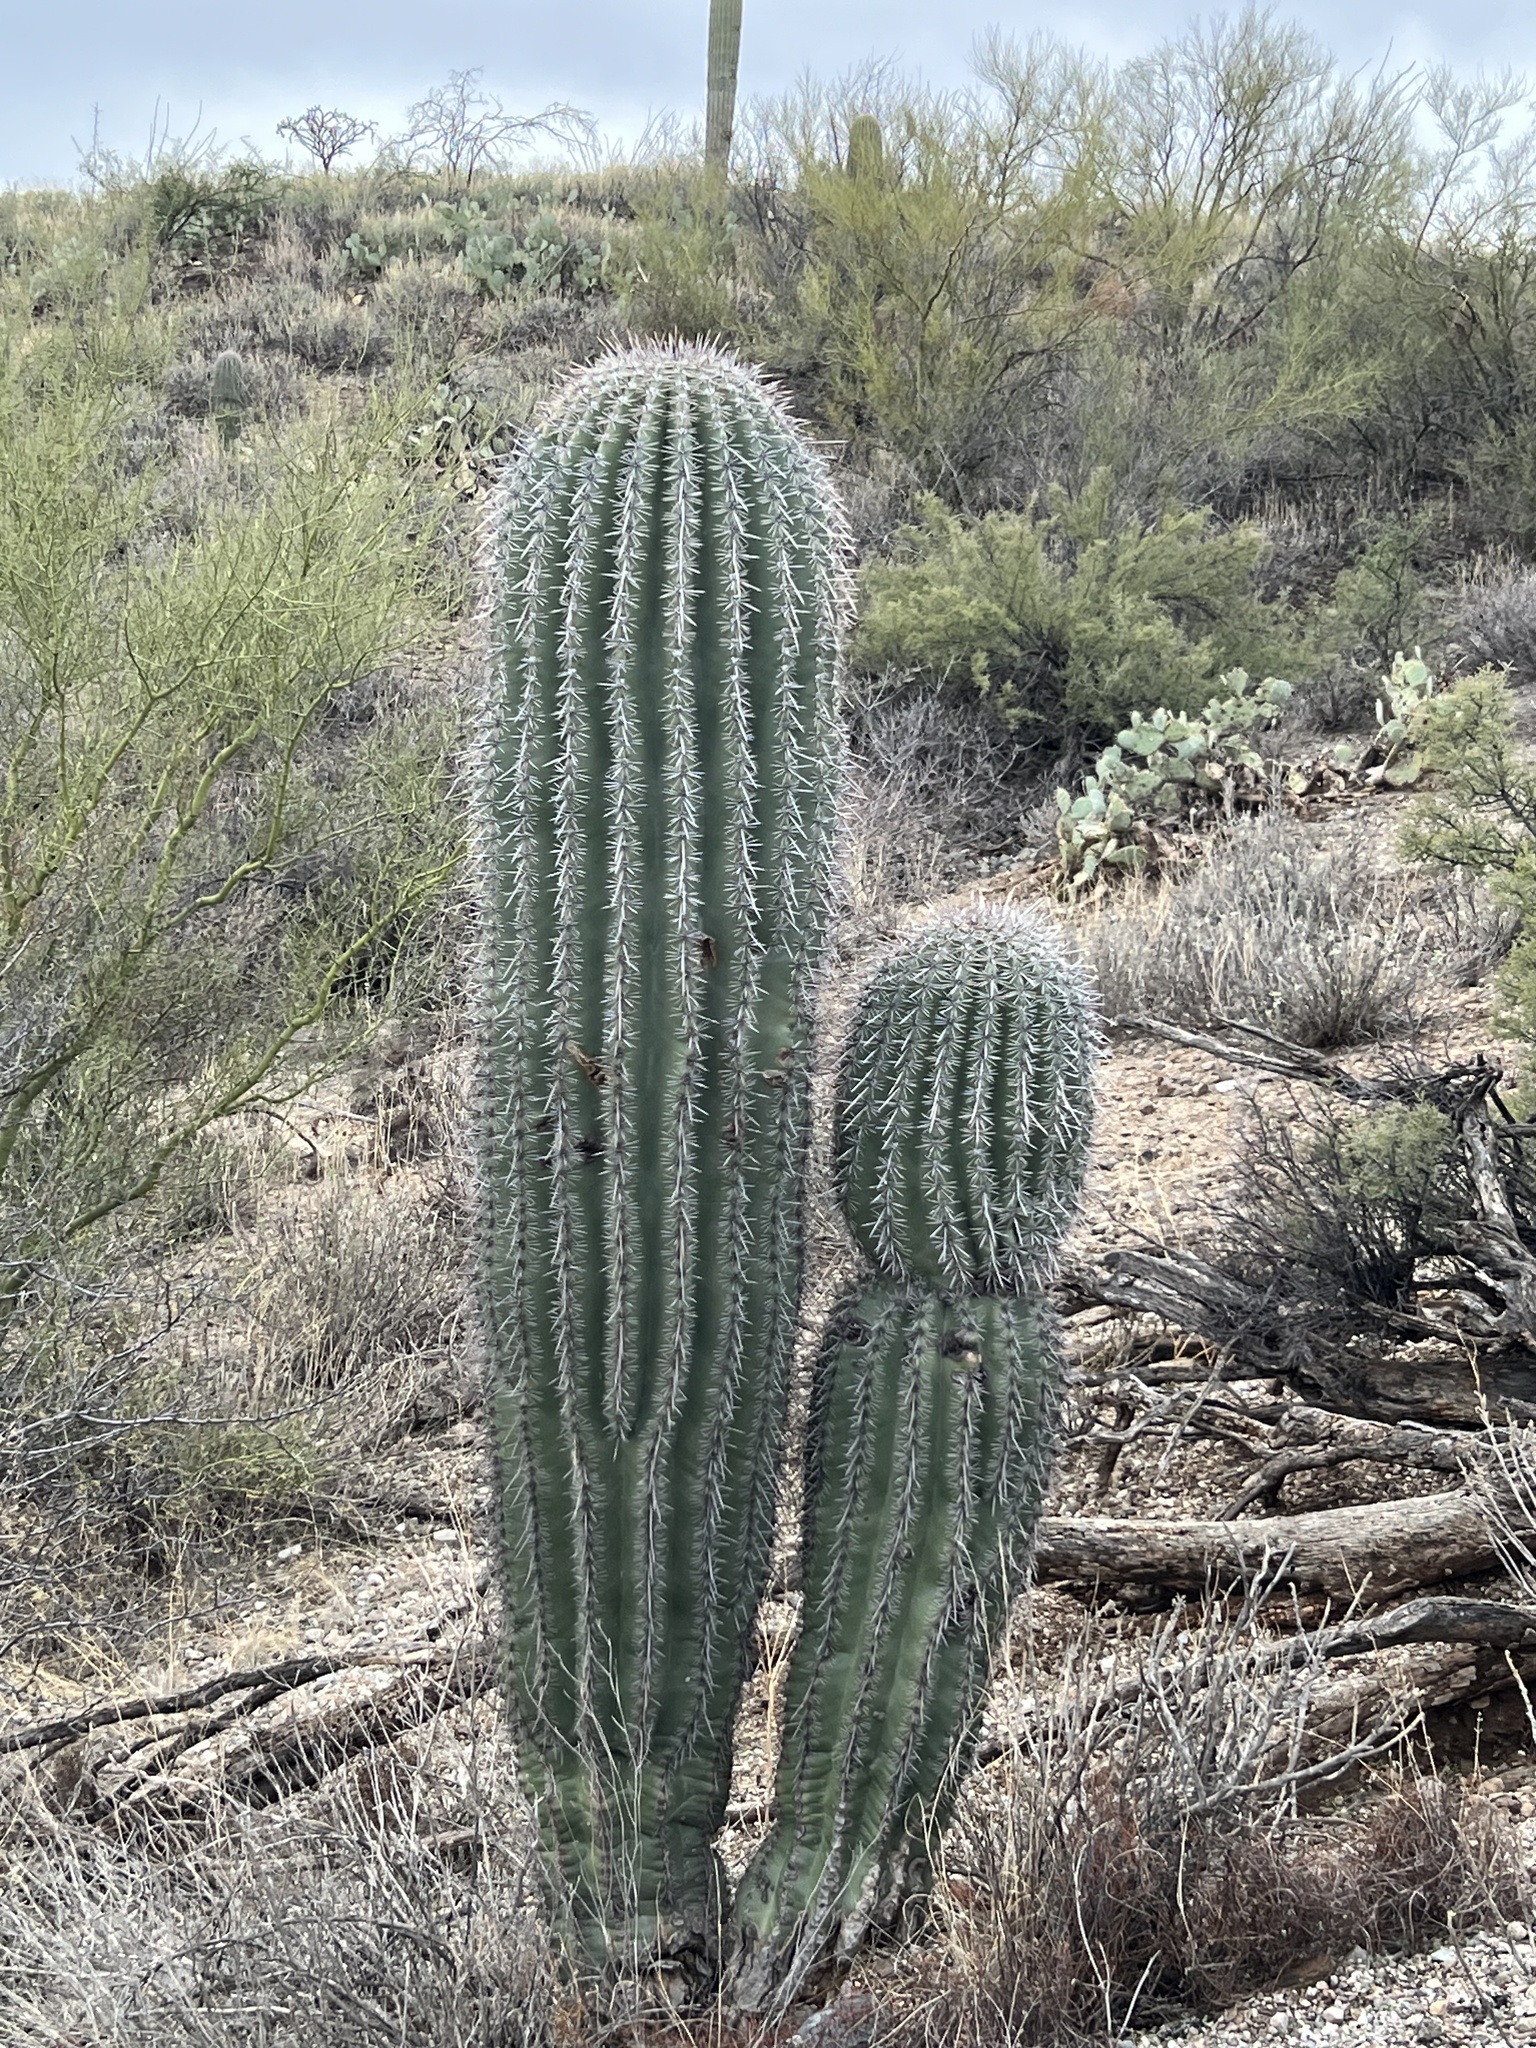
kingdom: Plantae
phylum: Tracheophyta
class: Magnoliopsida
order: Caryophyllales
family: Cactaceae
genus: Carnegiea
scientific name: Carnegiea gigantea
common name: Saguaro
